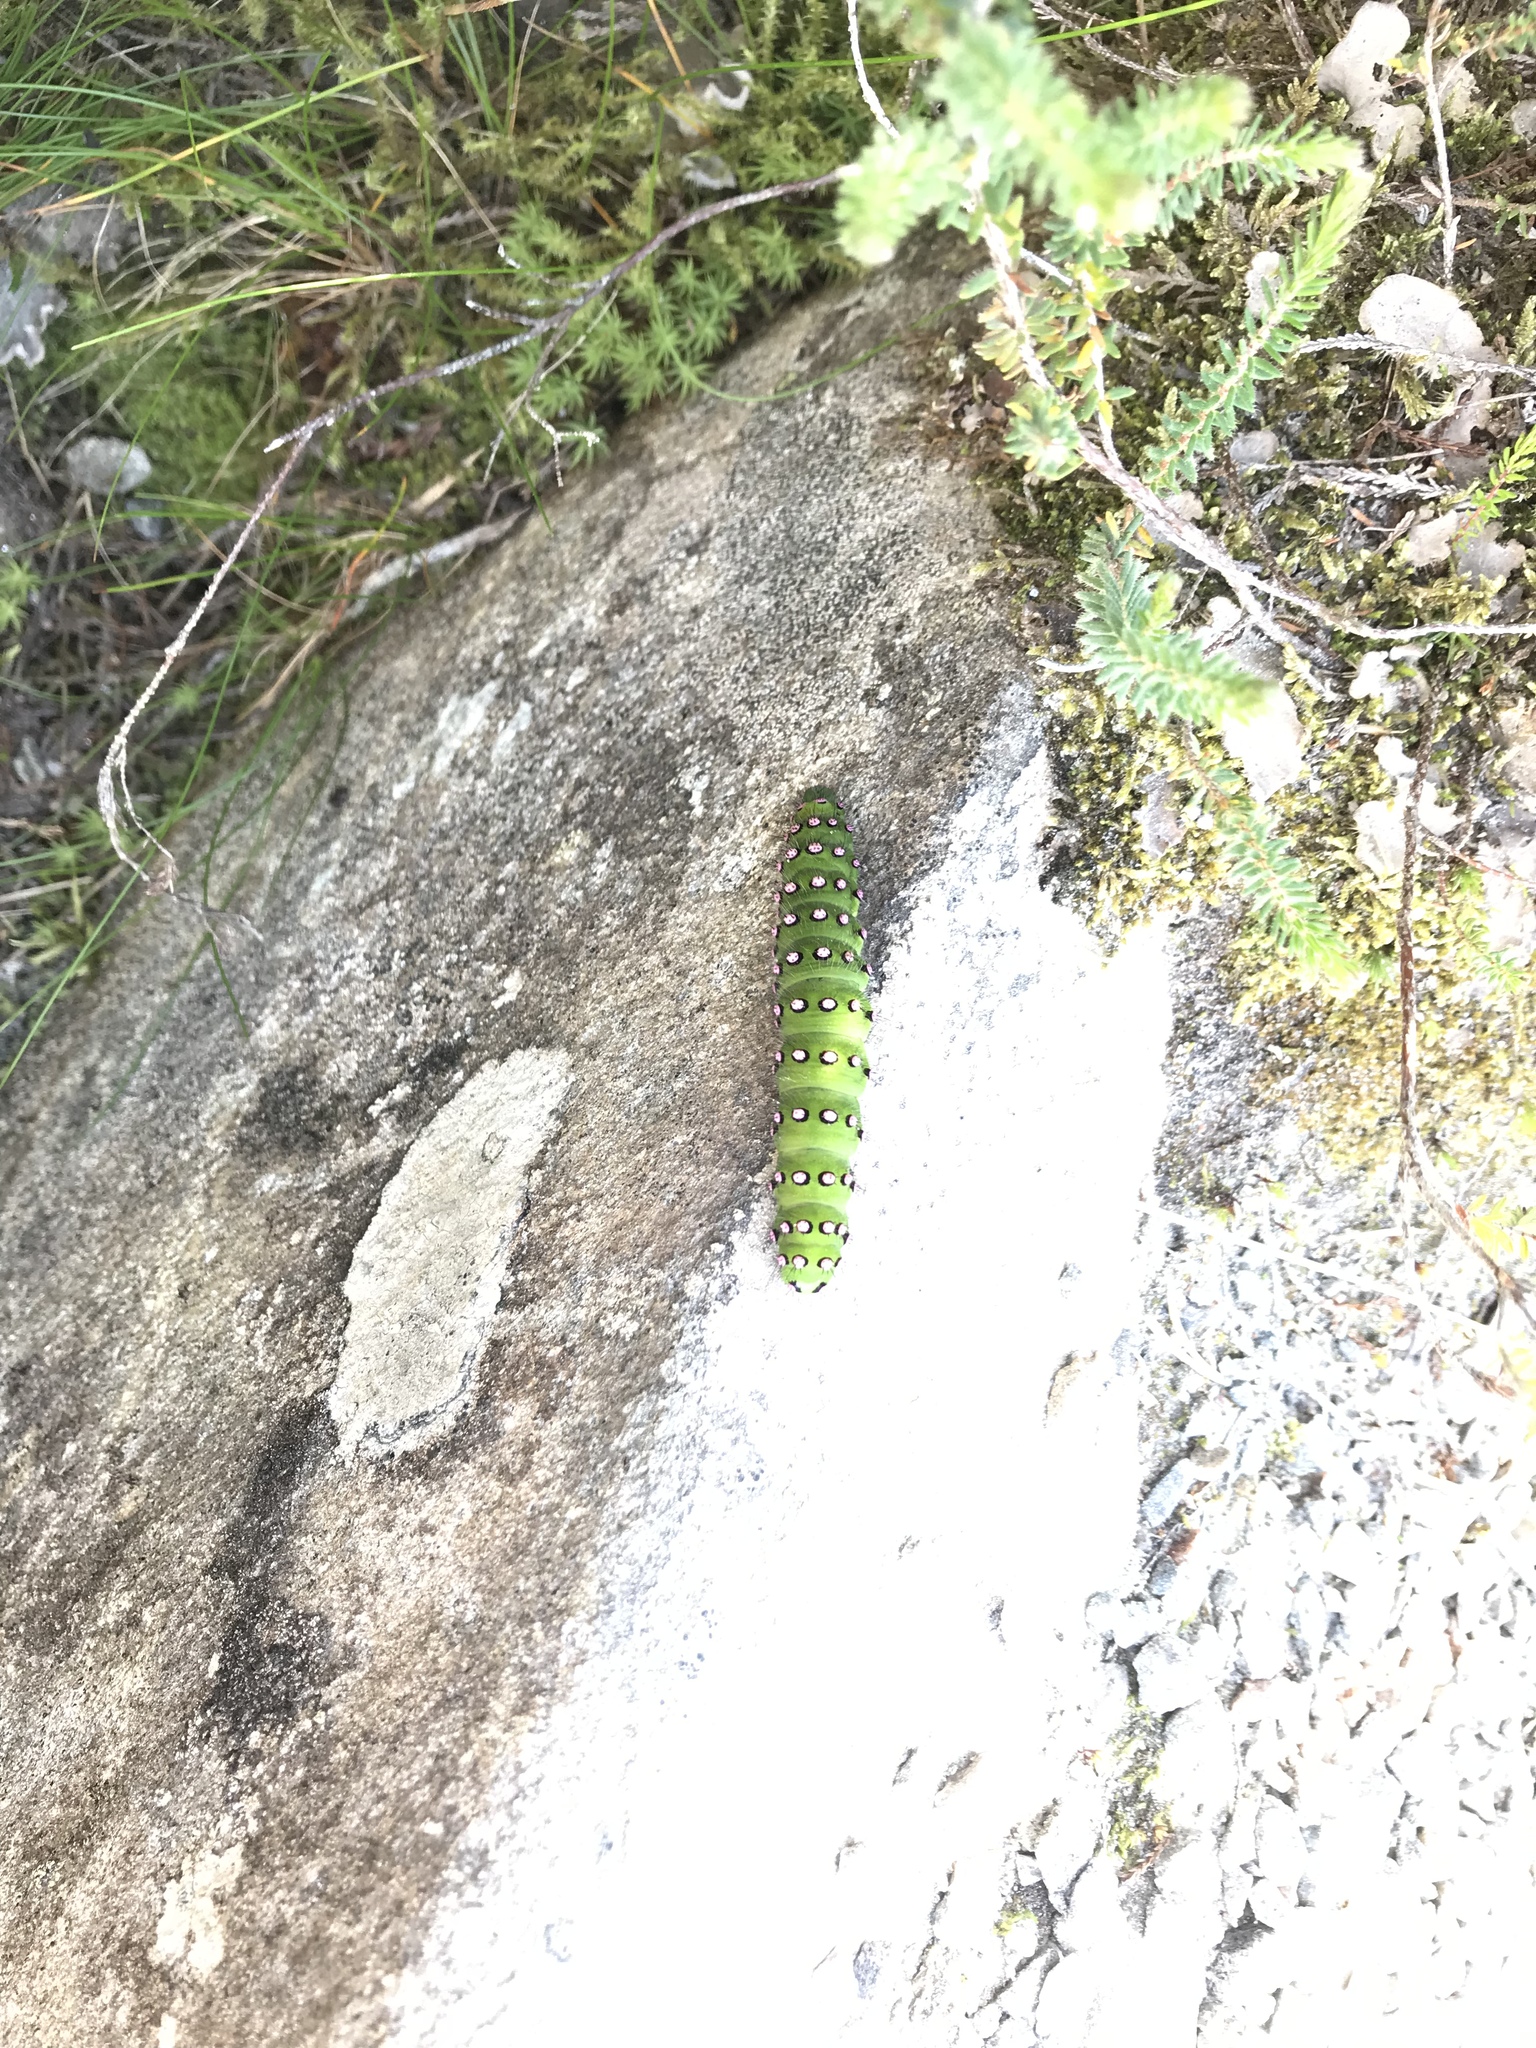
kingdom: Animalia
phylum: Arthropoda
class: Insecta
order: Lepidoptera
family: Saturniidae
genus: Saturnia
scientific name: Saturnia pavonia
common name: Emperor moth
